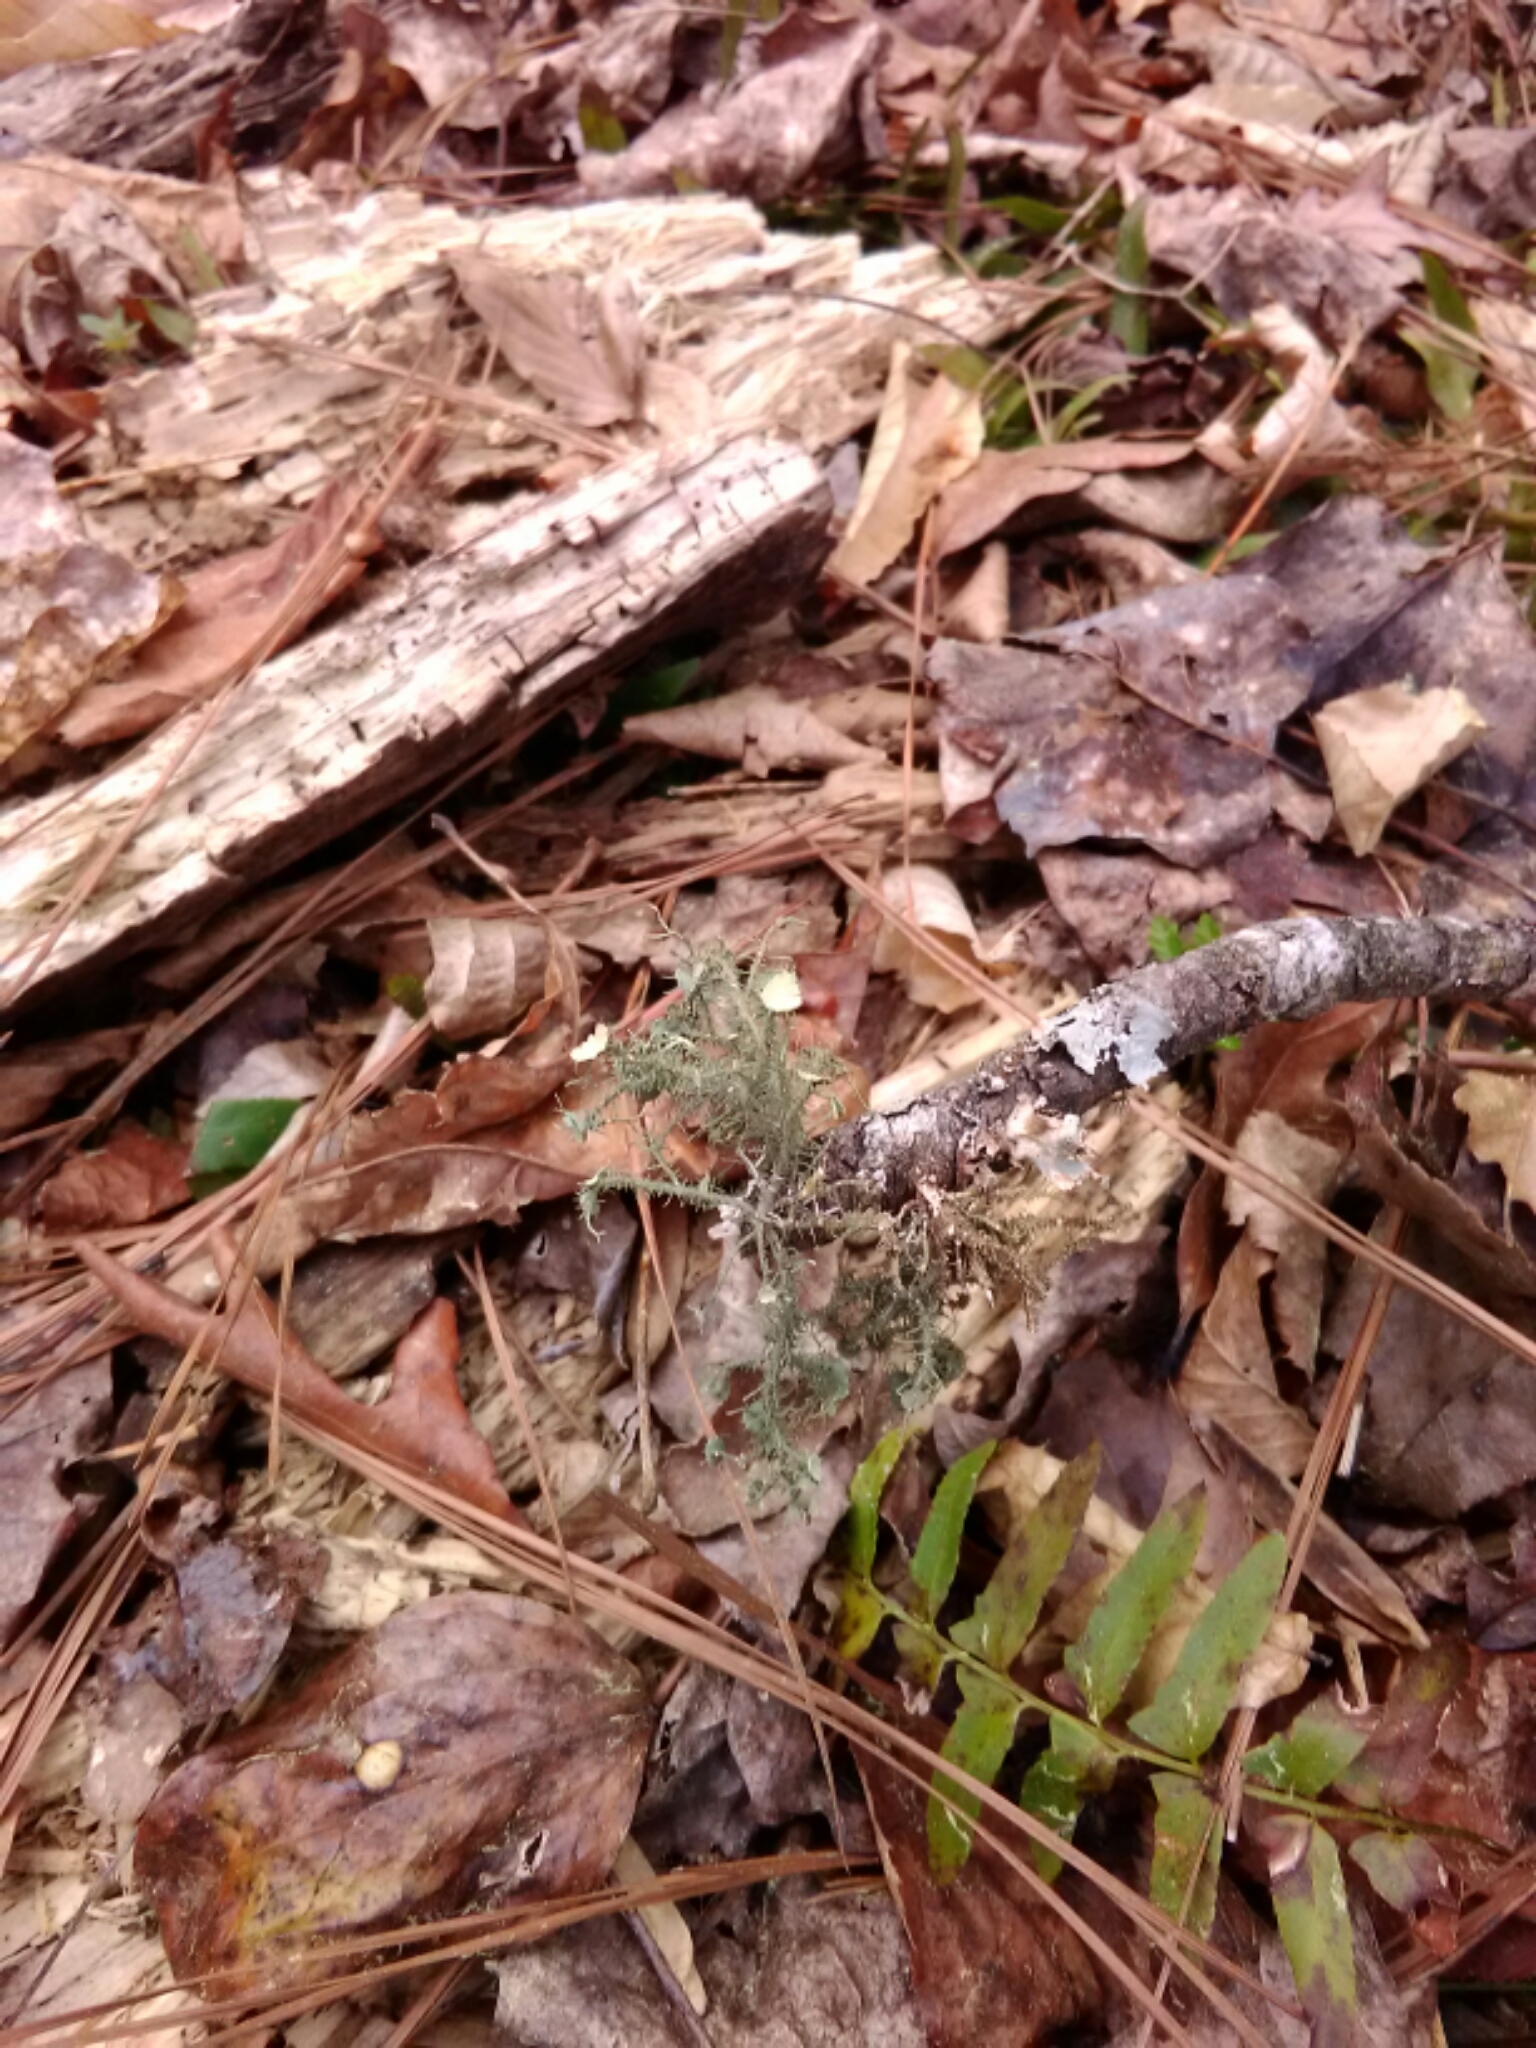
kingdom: Fungi
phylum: Ascomycota
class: Lecanoromycetes
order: Lecanorales
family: Parmeliaceae
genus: Usnea
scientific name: Usnea strigosa
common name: Bushy beard lichen
